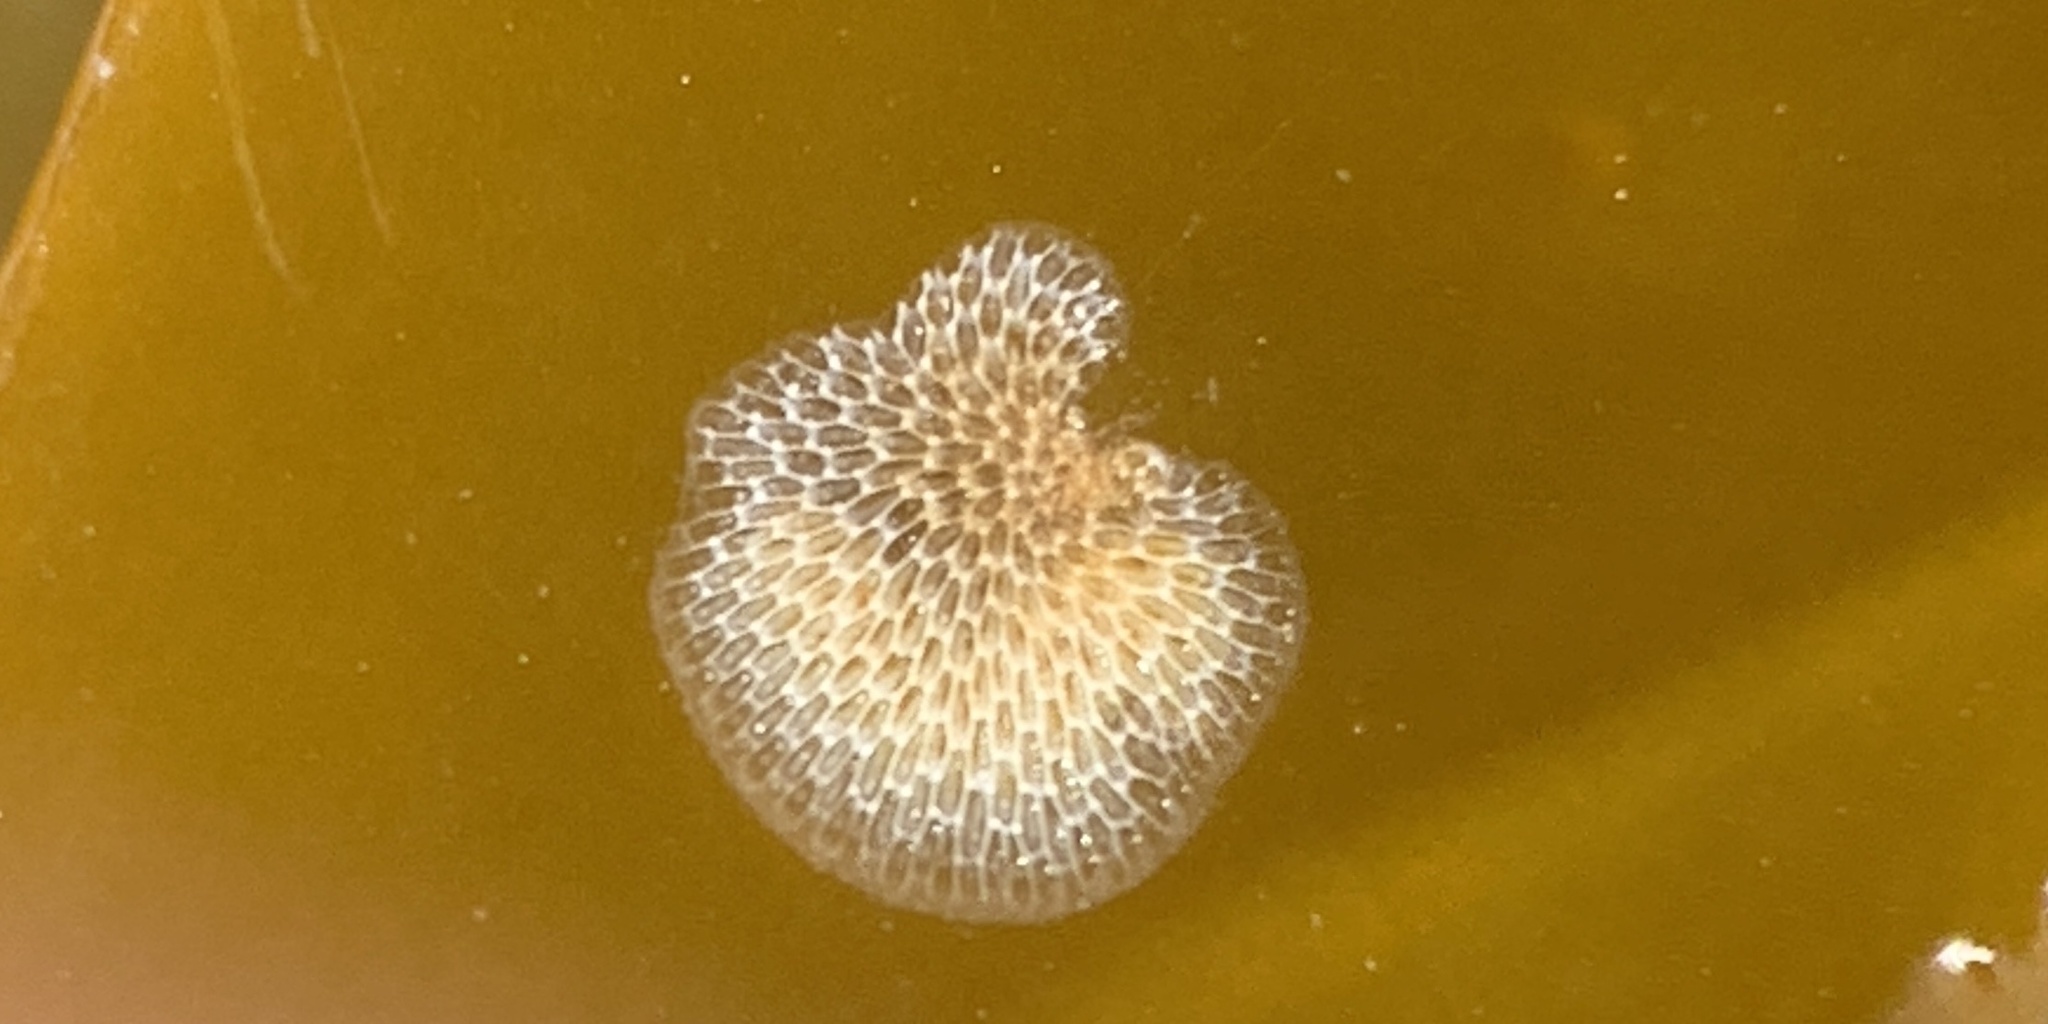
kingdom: Animalia
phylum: Bryozoa
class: Gymnolaemata
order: Cheilostomatida
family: Membraniporidae
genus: Membranipora
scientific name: Membranipora membranacea
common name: Sea mat
